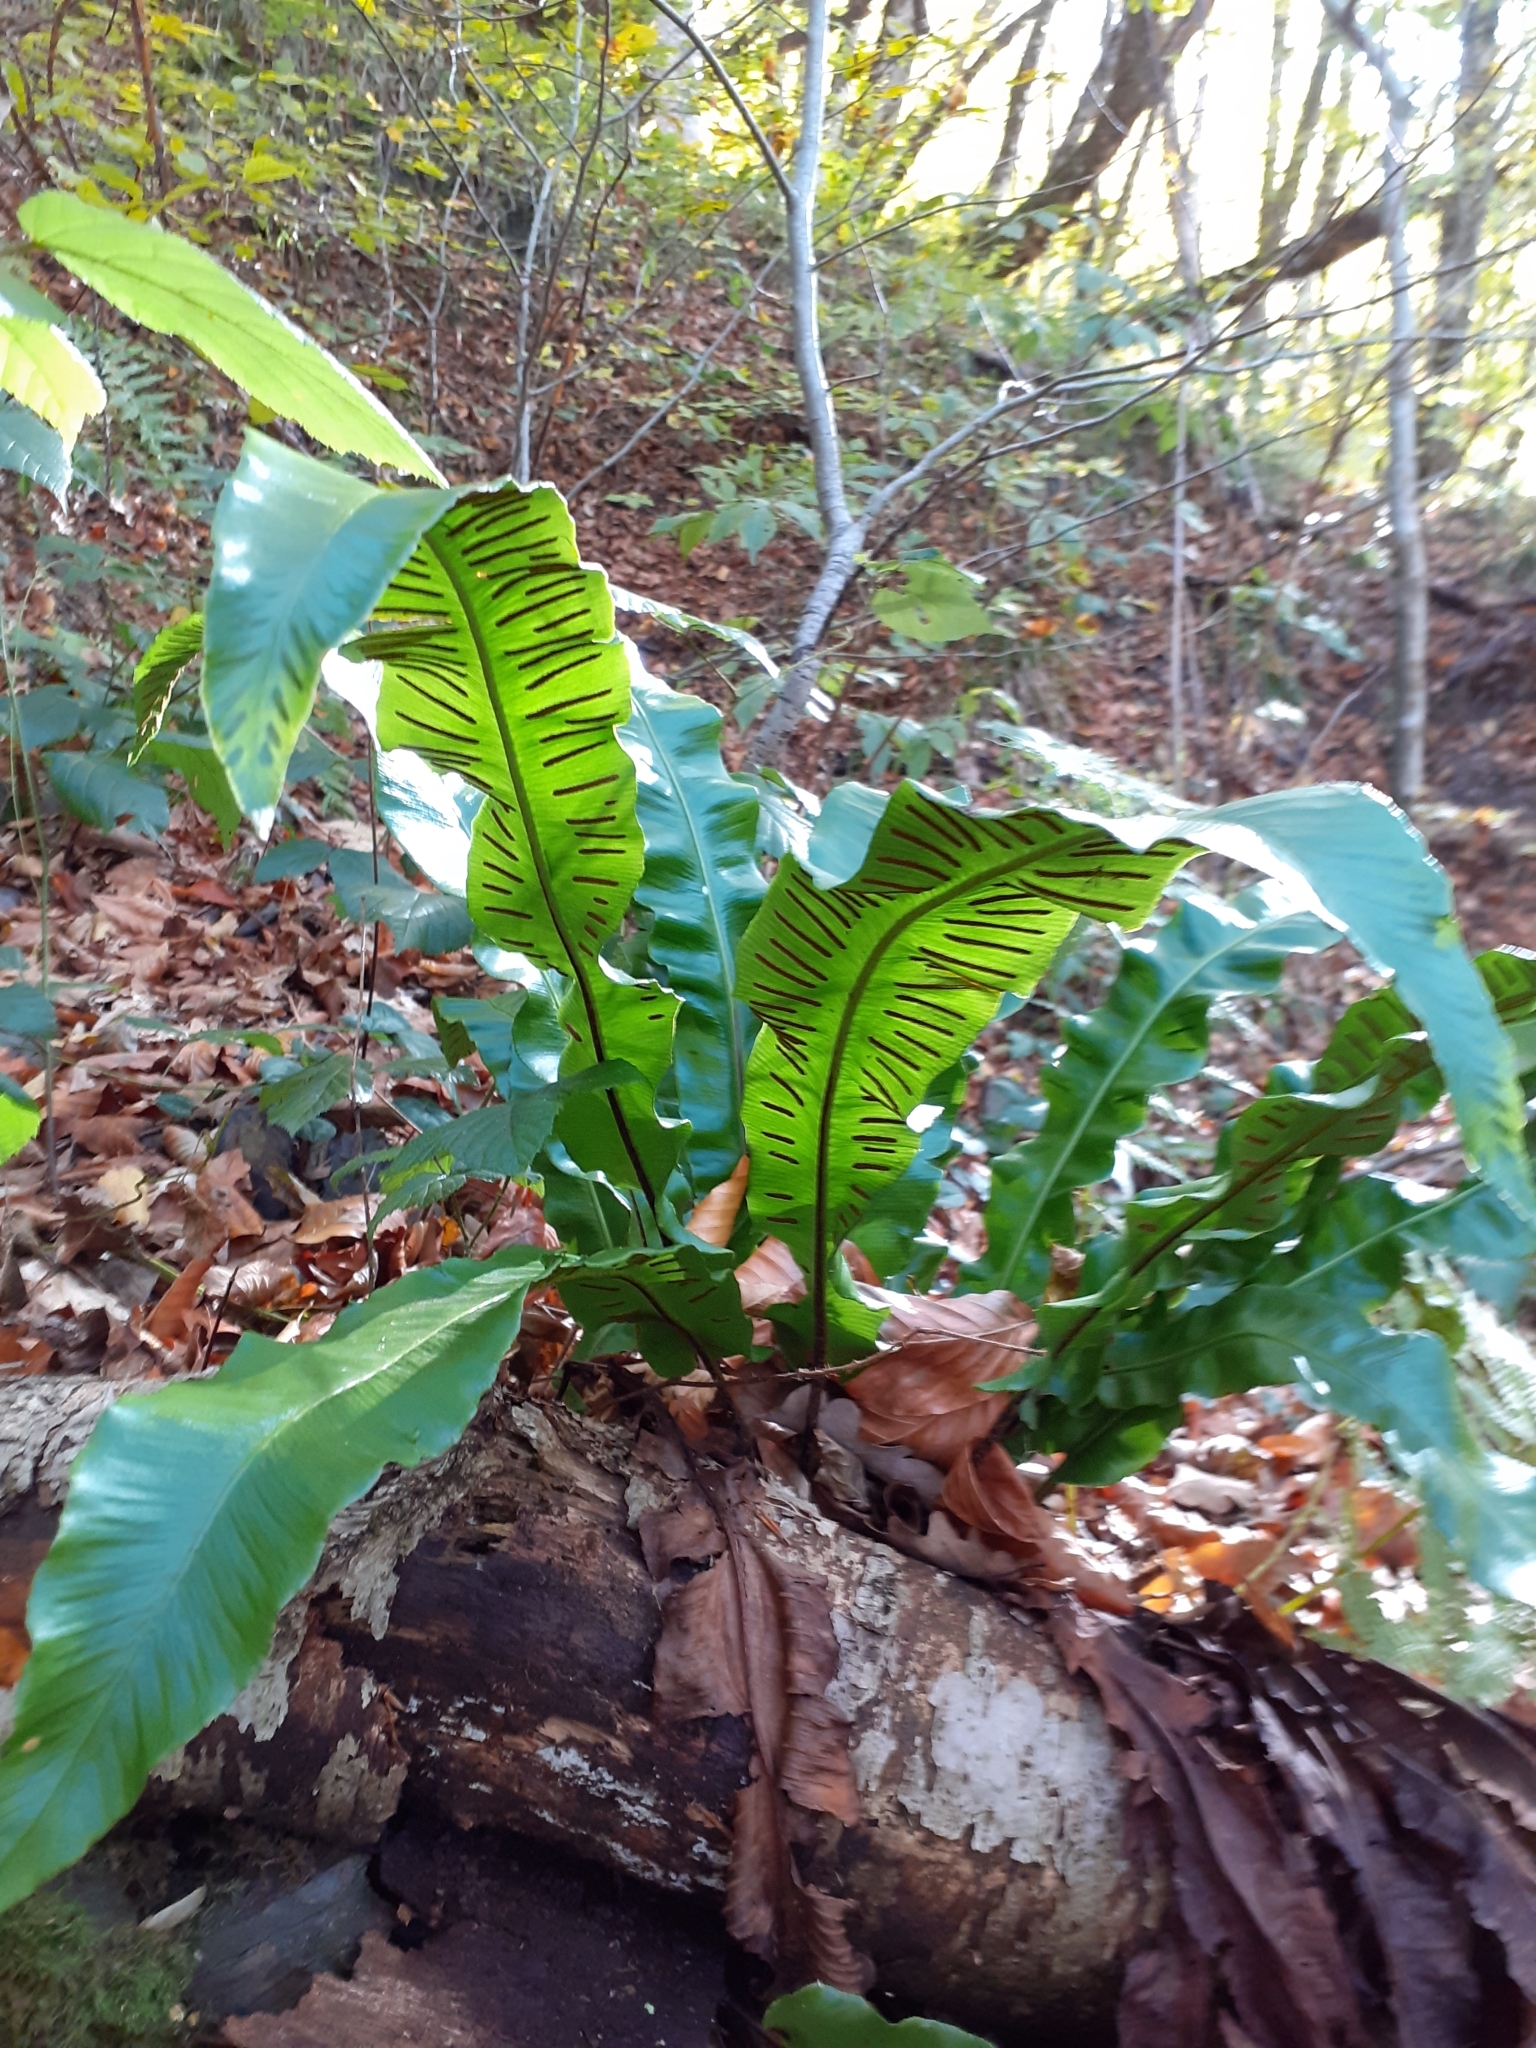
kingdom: Plantae
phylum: Tracheophyta
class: Polypodiopsida
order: Polypodiales
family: Aspleniaceae
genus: Asplenium
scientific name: Asplenium scolopendrium
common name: Hart's-tongue fern
